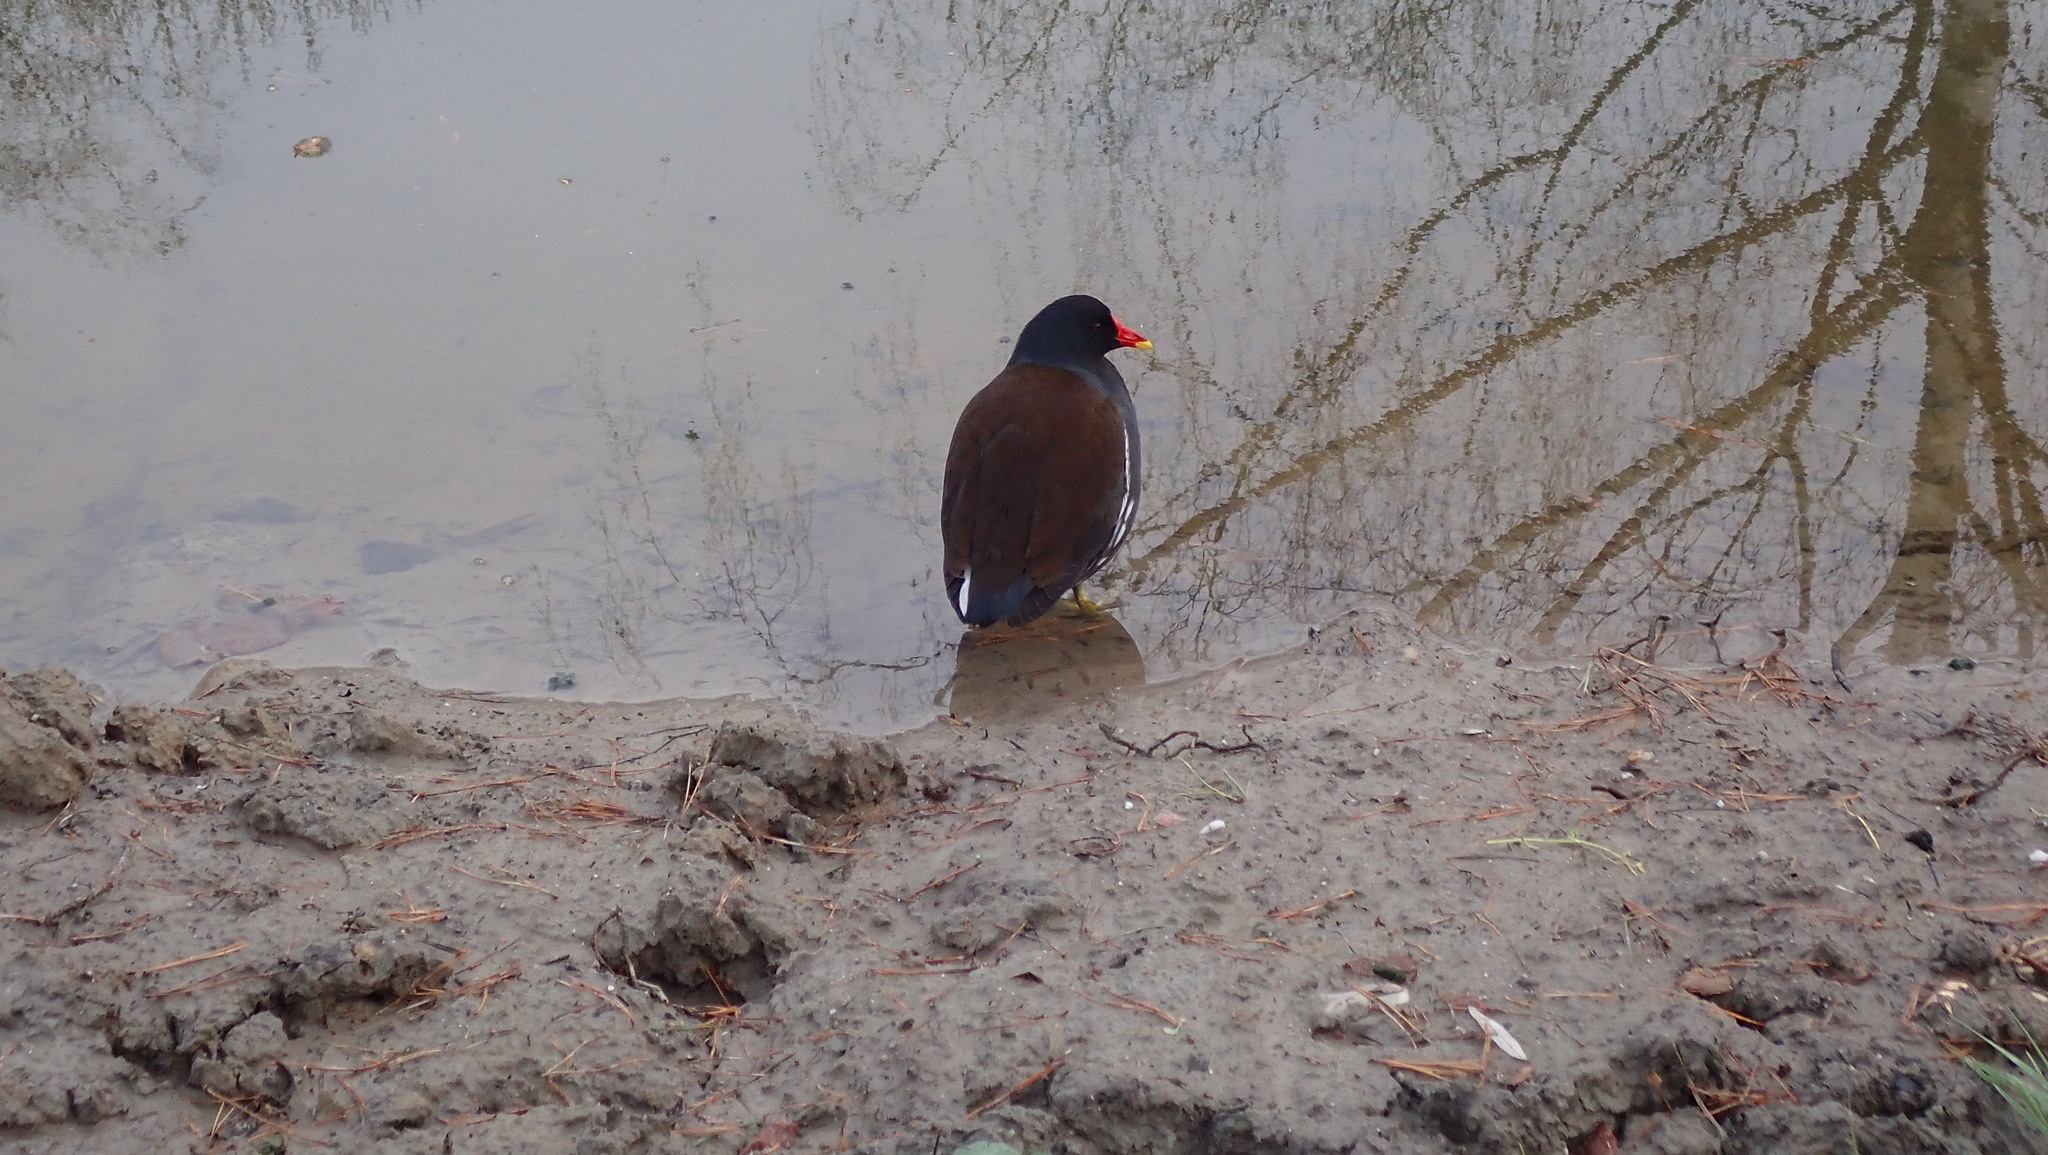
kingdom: Animalia
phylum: Chordata
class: Aves
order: Gruiformes
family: Rallidae
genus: Gallinula
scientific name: Gallinula chloropus
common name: Common moorhen
